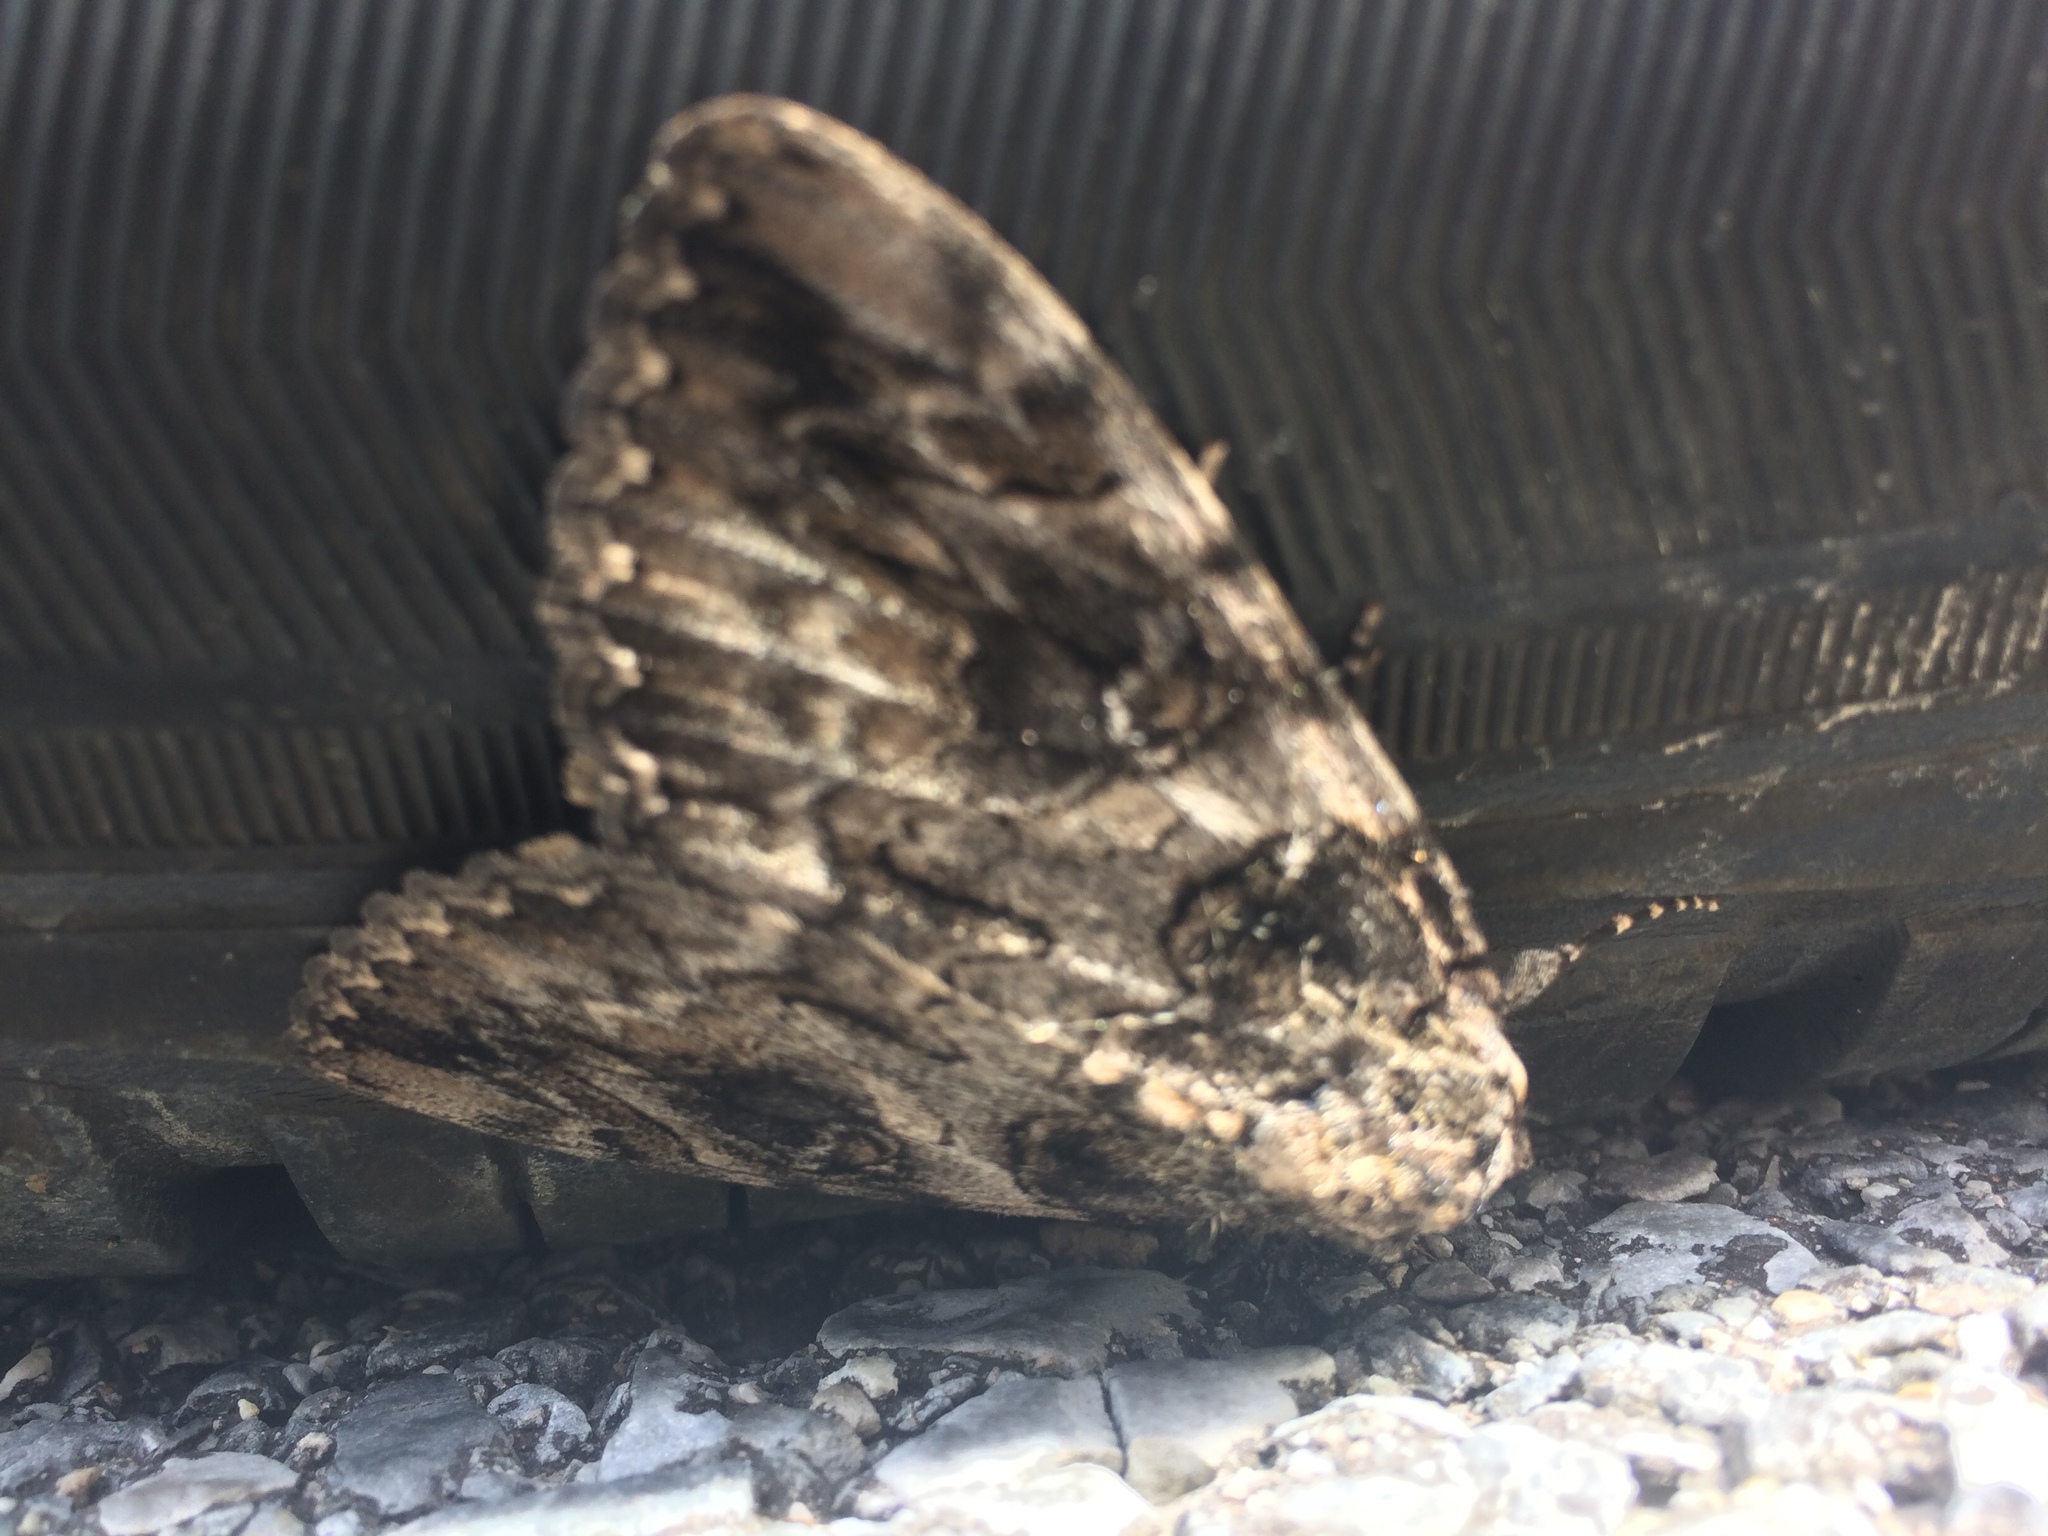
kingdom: Animalia
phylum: Arthropoda
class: Insecta
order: Lepidoptera
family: Erebidae
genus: Catocala
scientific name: Catocala neogama
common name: Bride underwing
